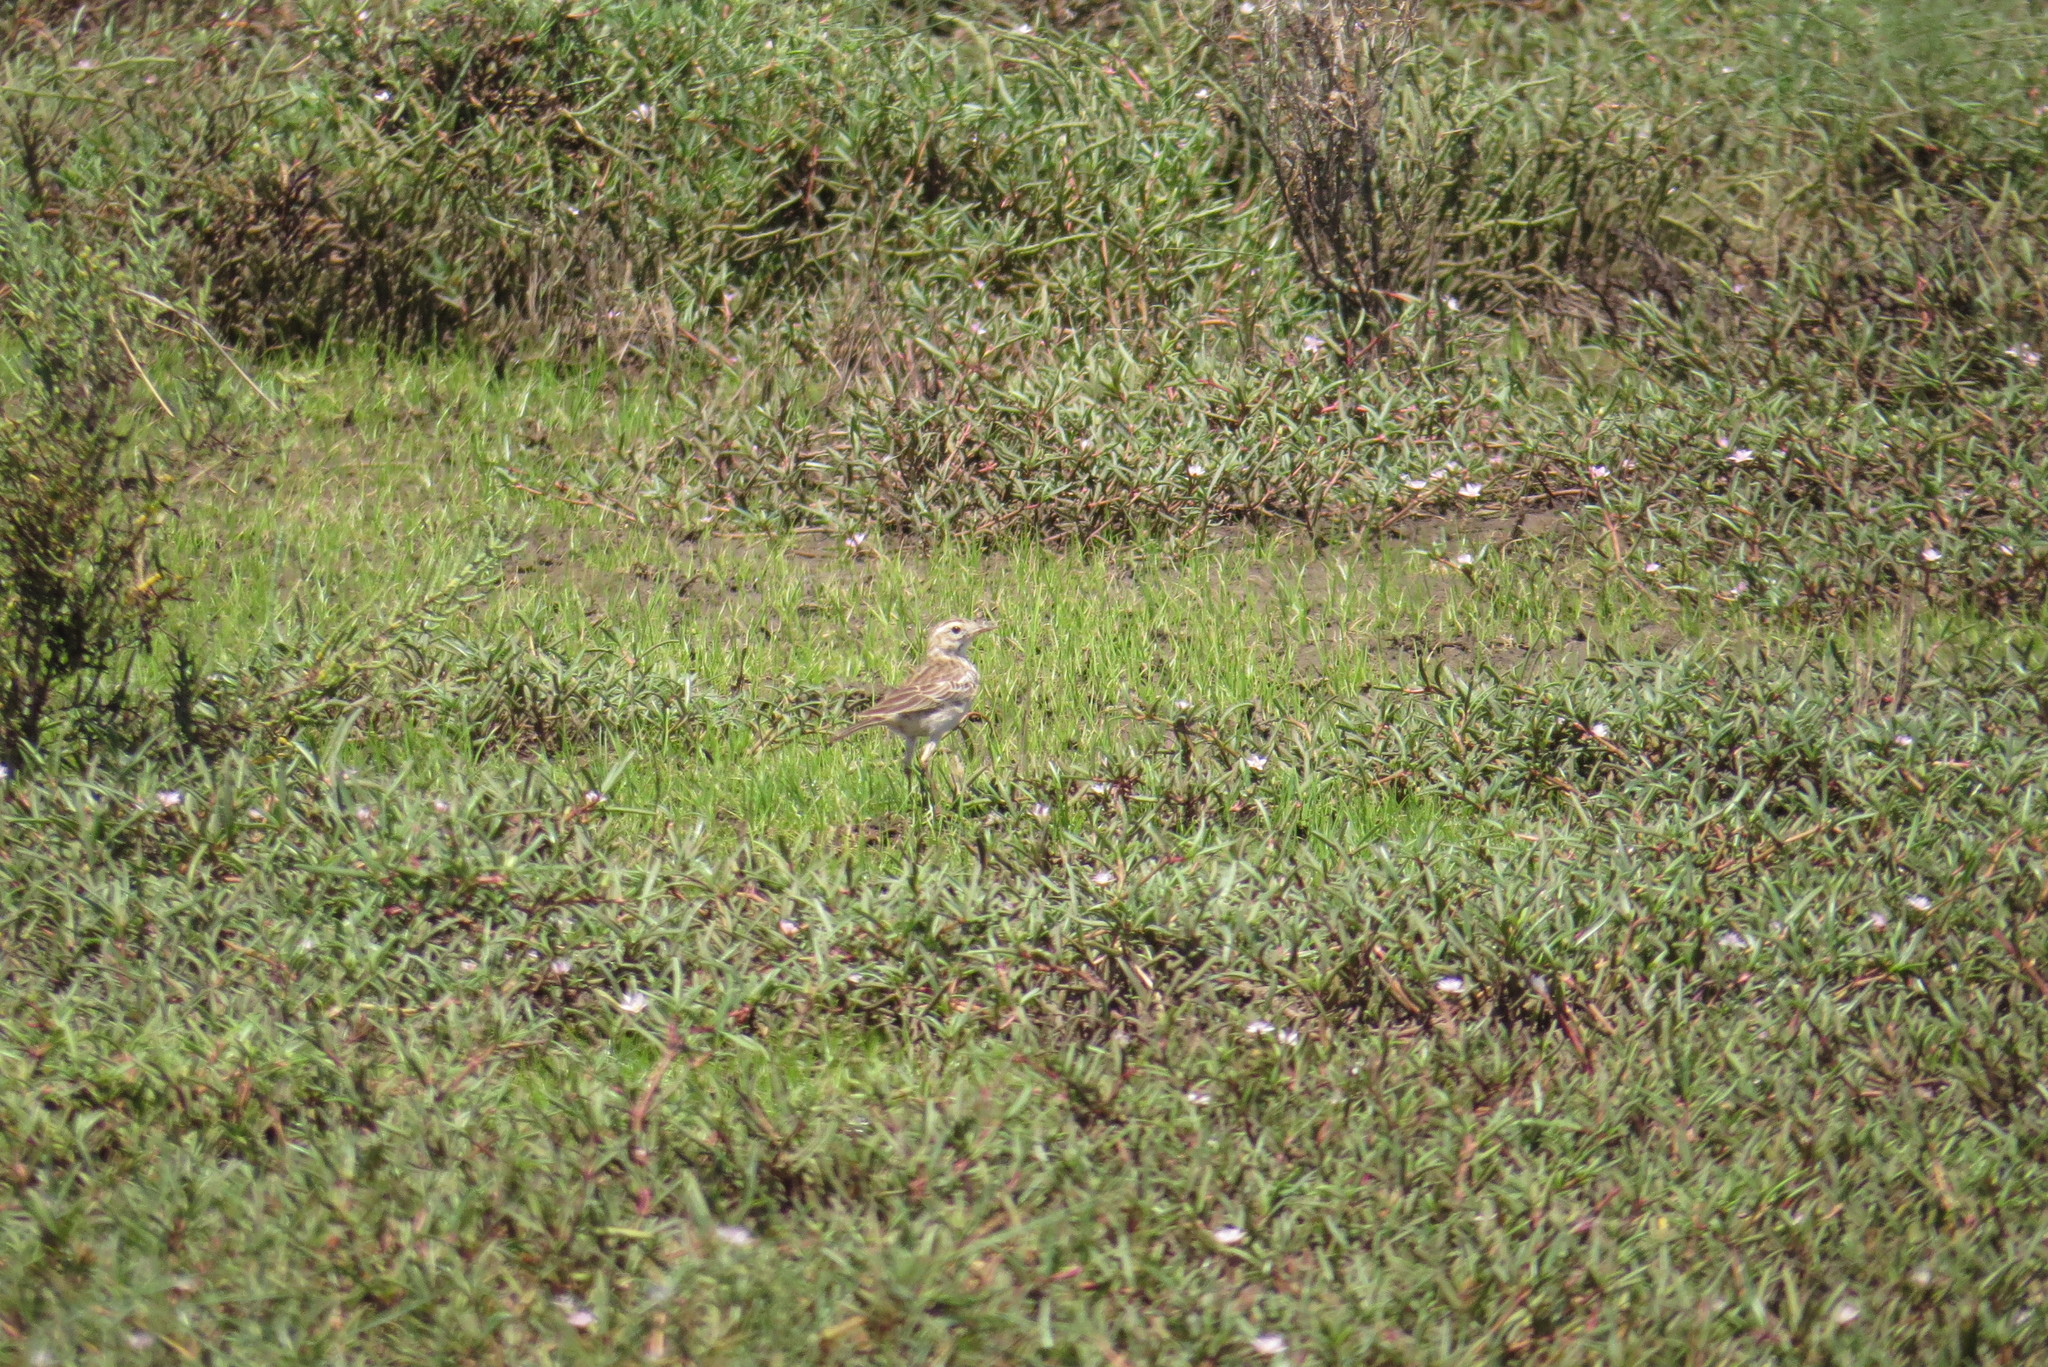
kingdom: Animalia
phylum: Chordata
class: Aves
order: Passeriformes
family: Motacillidae
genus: Anthus
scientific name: Anthus australis
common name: Australian pipit
